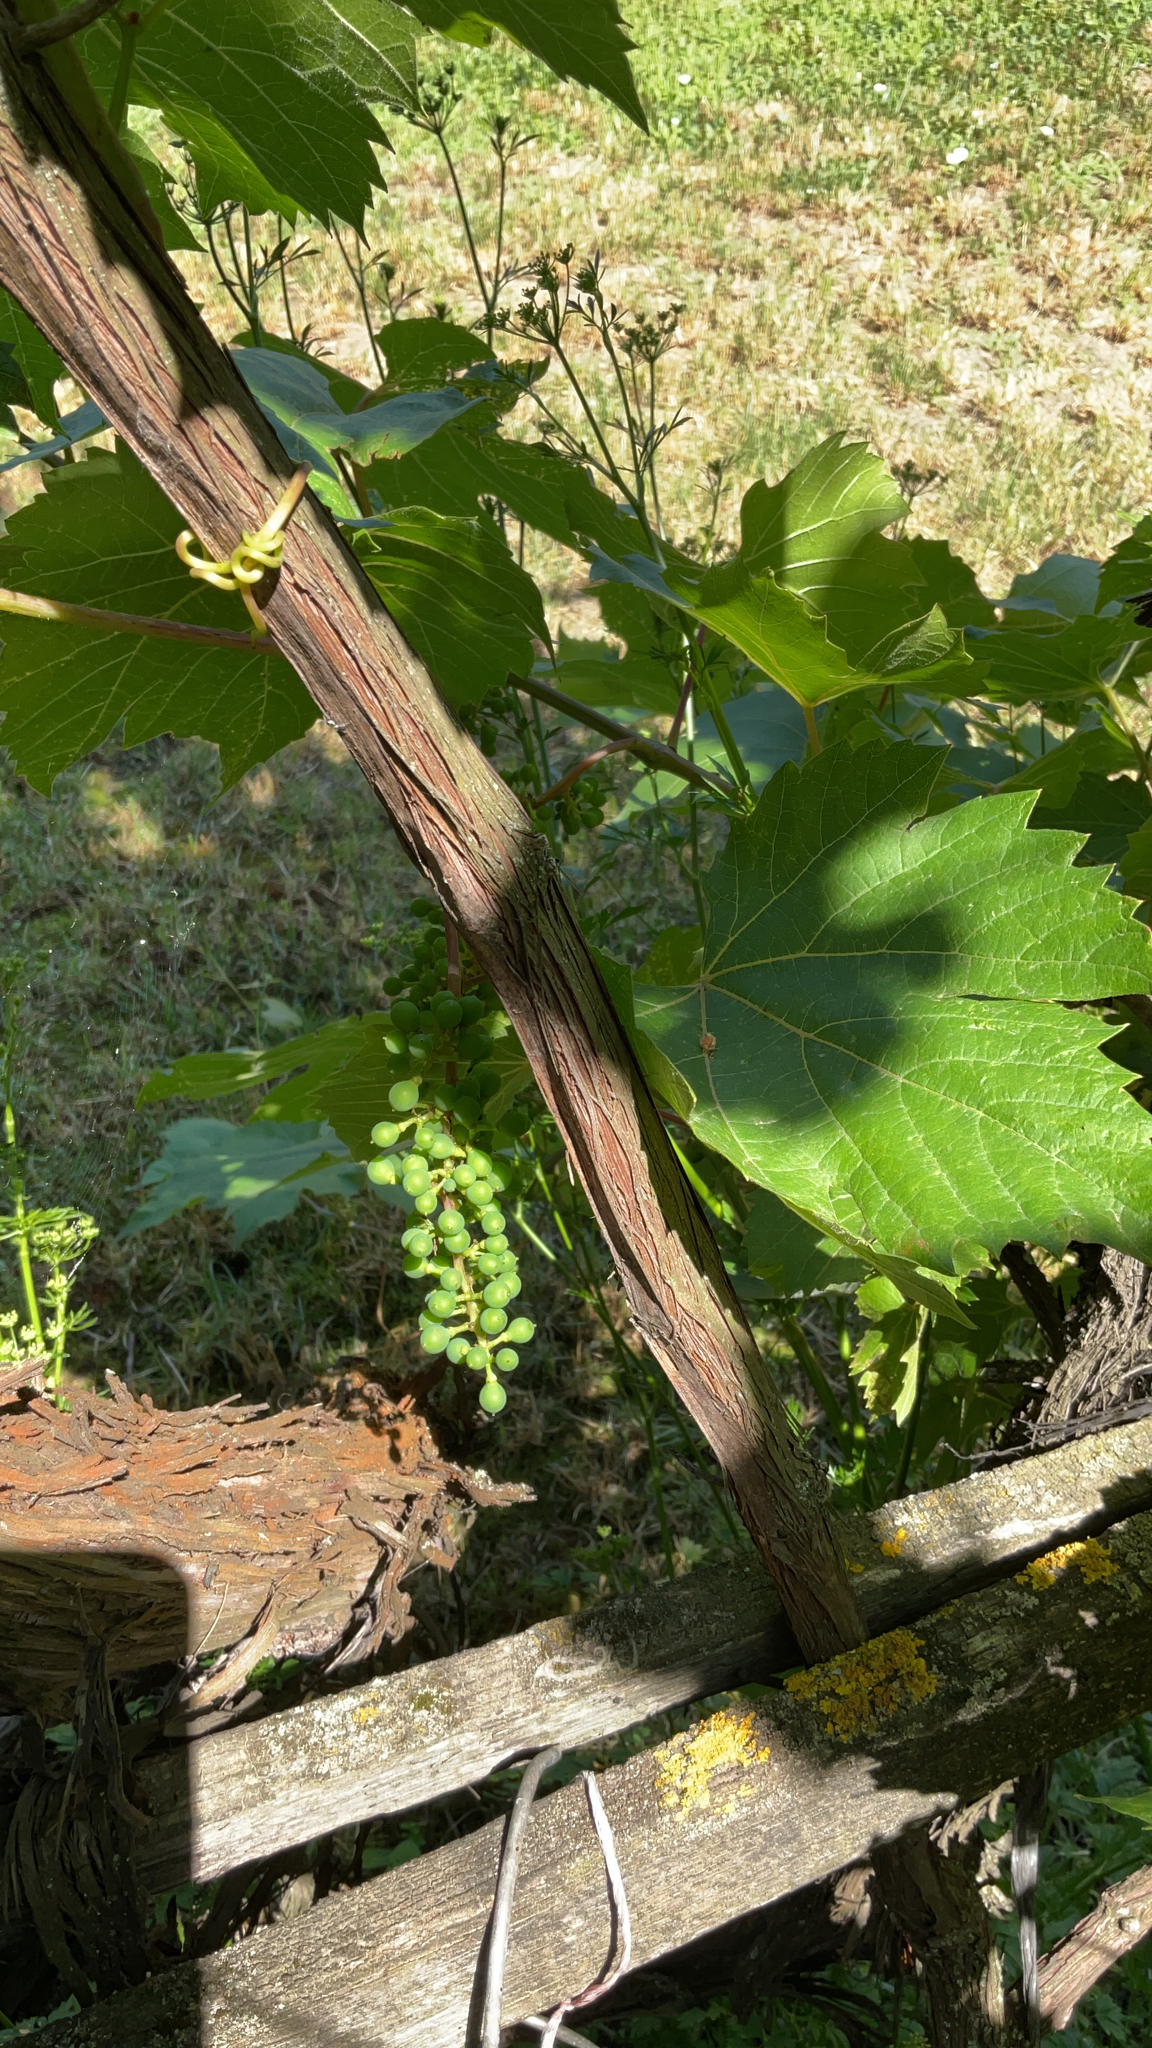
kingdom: Plantae
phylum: Tracheophyta
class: Magnoliopsida
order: Vitales
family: Vitaceae
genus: Vitis
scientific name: Vitis vinifera
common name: Grape-vine
